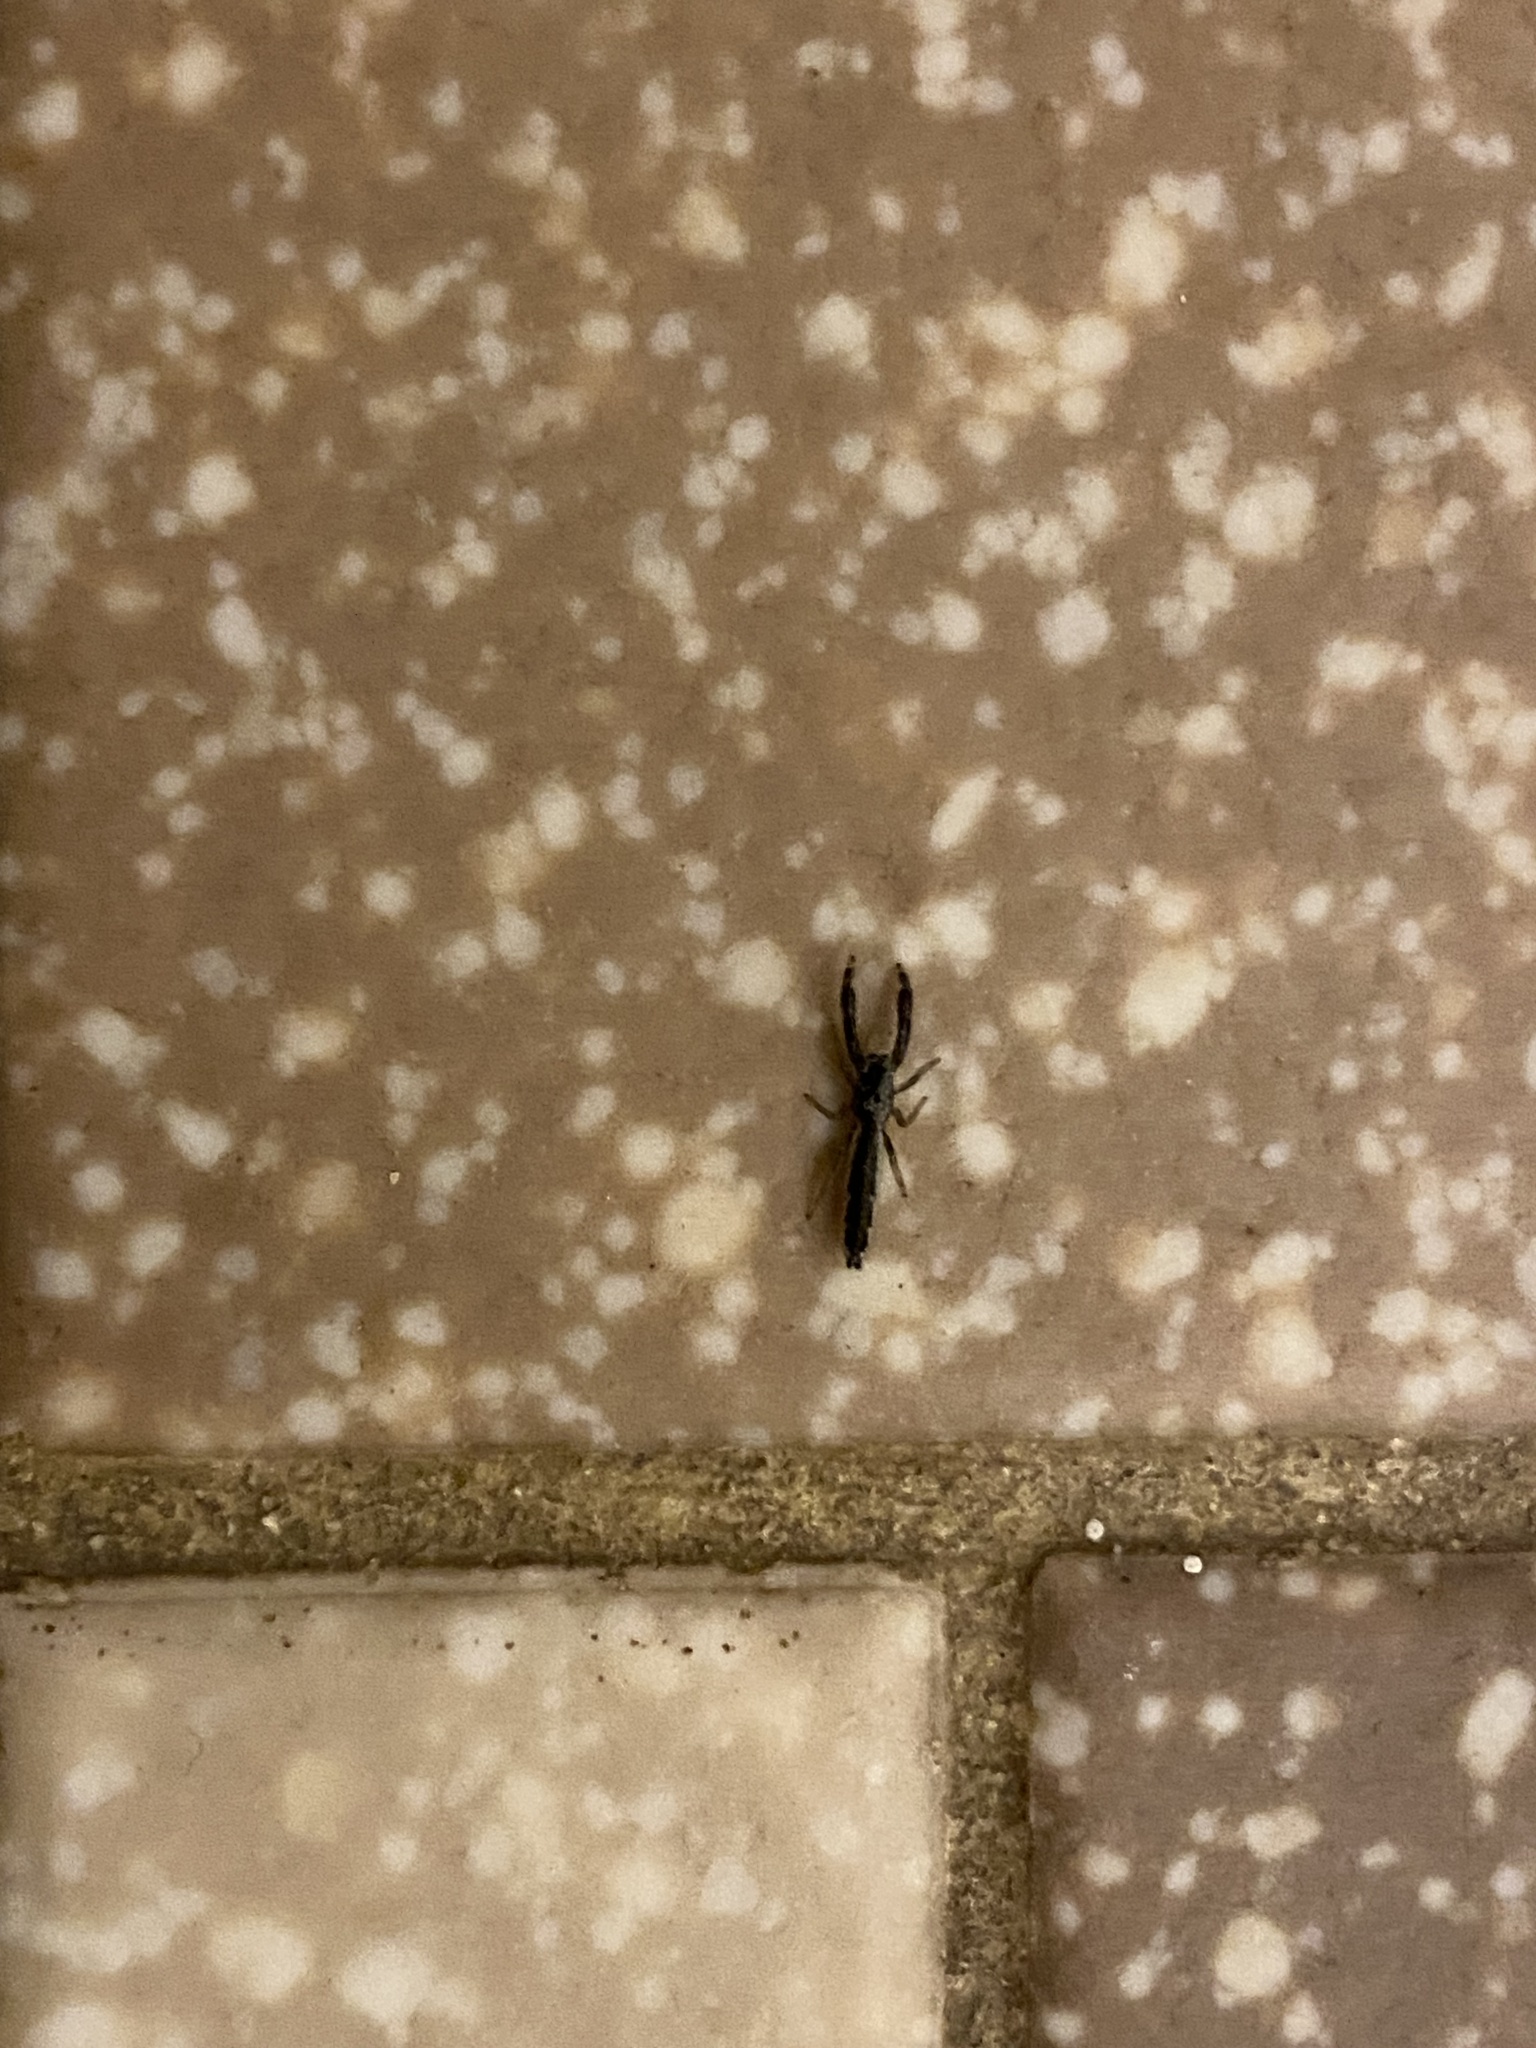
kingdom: Animalia
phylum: Arthropoda
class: Arachnida
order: Araneae
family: Salticidae
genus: Marpissa
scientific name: Marpissa pikei
